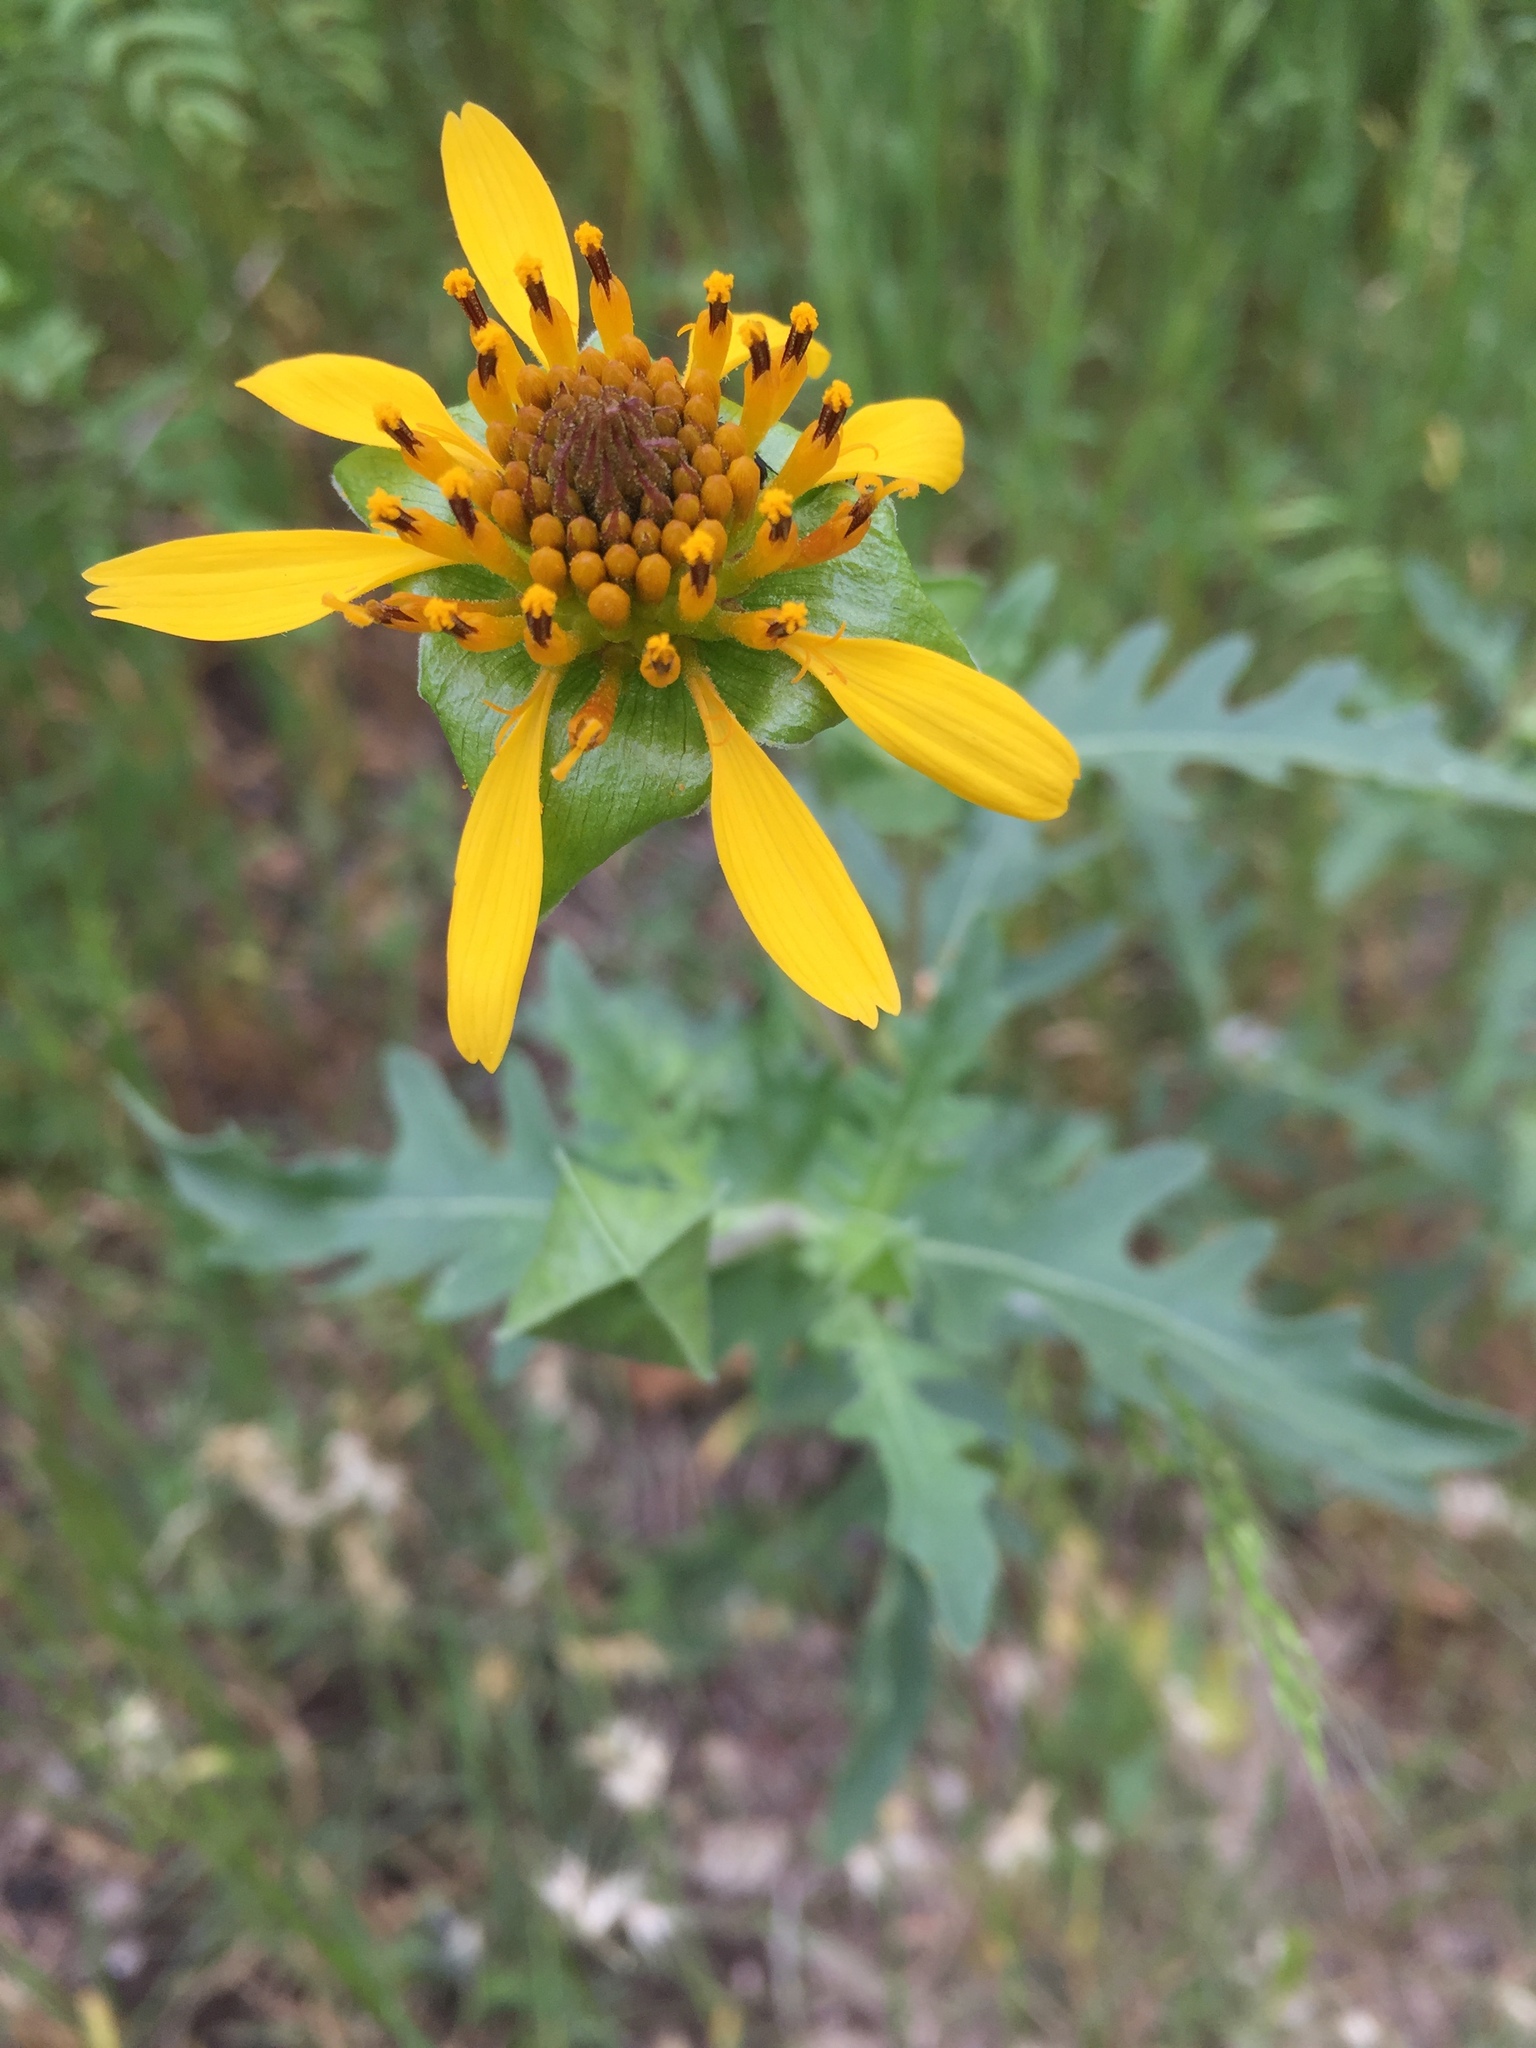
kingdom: Plantae
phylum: Tracheophyta
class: Magnoliopsida
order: Asterales
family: Asteraceae
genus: Tetragonotheca
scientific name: Tetragonotheca texana
